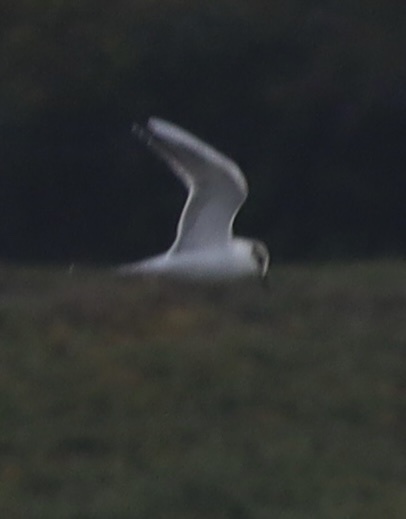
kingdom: Animalia
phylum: Chordata
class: Aves
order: Charadriiformes
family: Laridae
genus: Sterna
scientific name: Sterna forsteri
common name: Forster's tern
